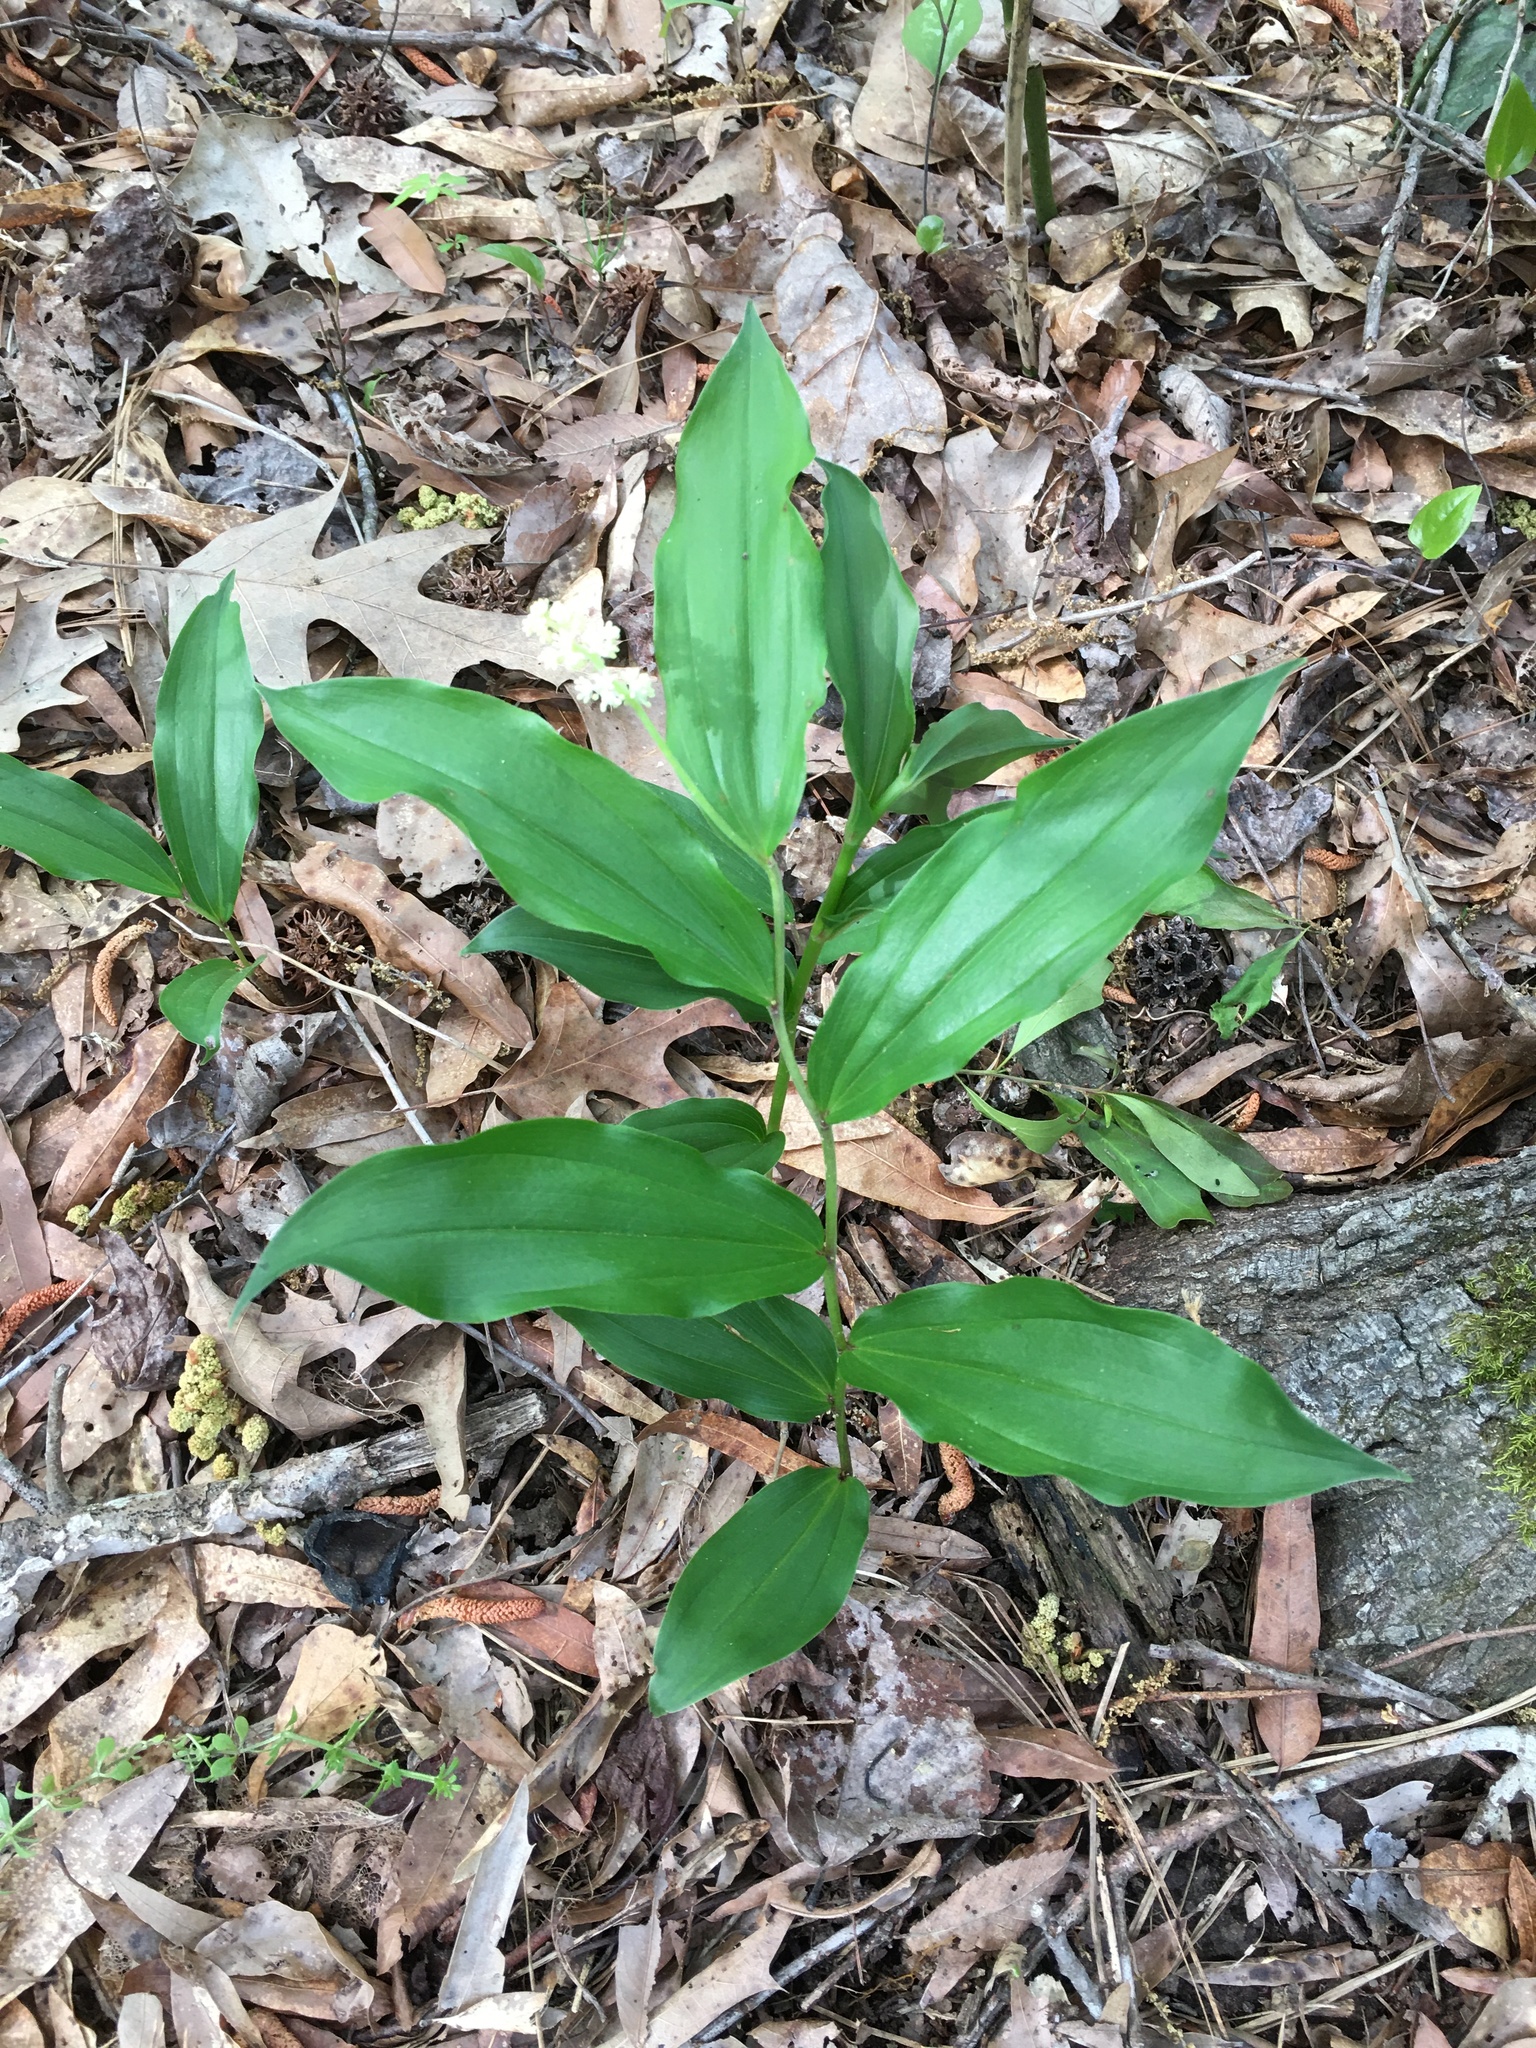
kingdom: Plantae
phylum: Tracheophyta
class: Liliopsida
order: Asparagales
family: Asparagaceae
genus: Maianthemum
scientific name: Maianthemum racemosum
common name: False spikenard
